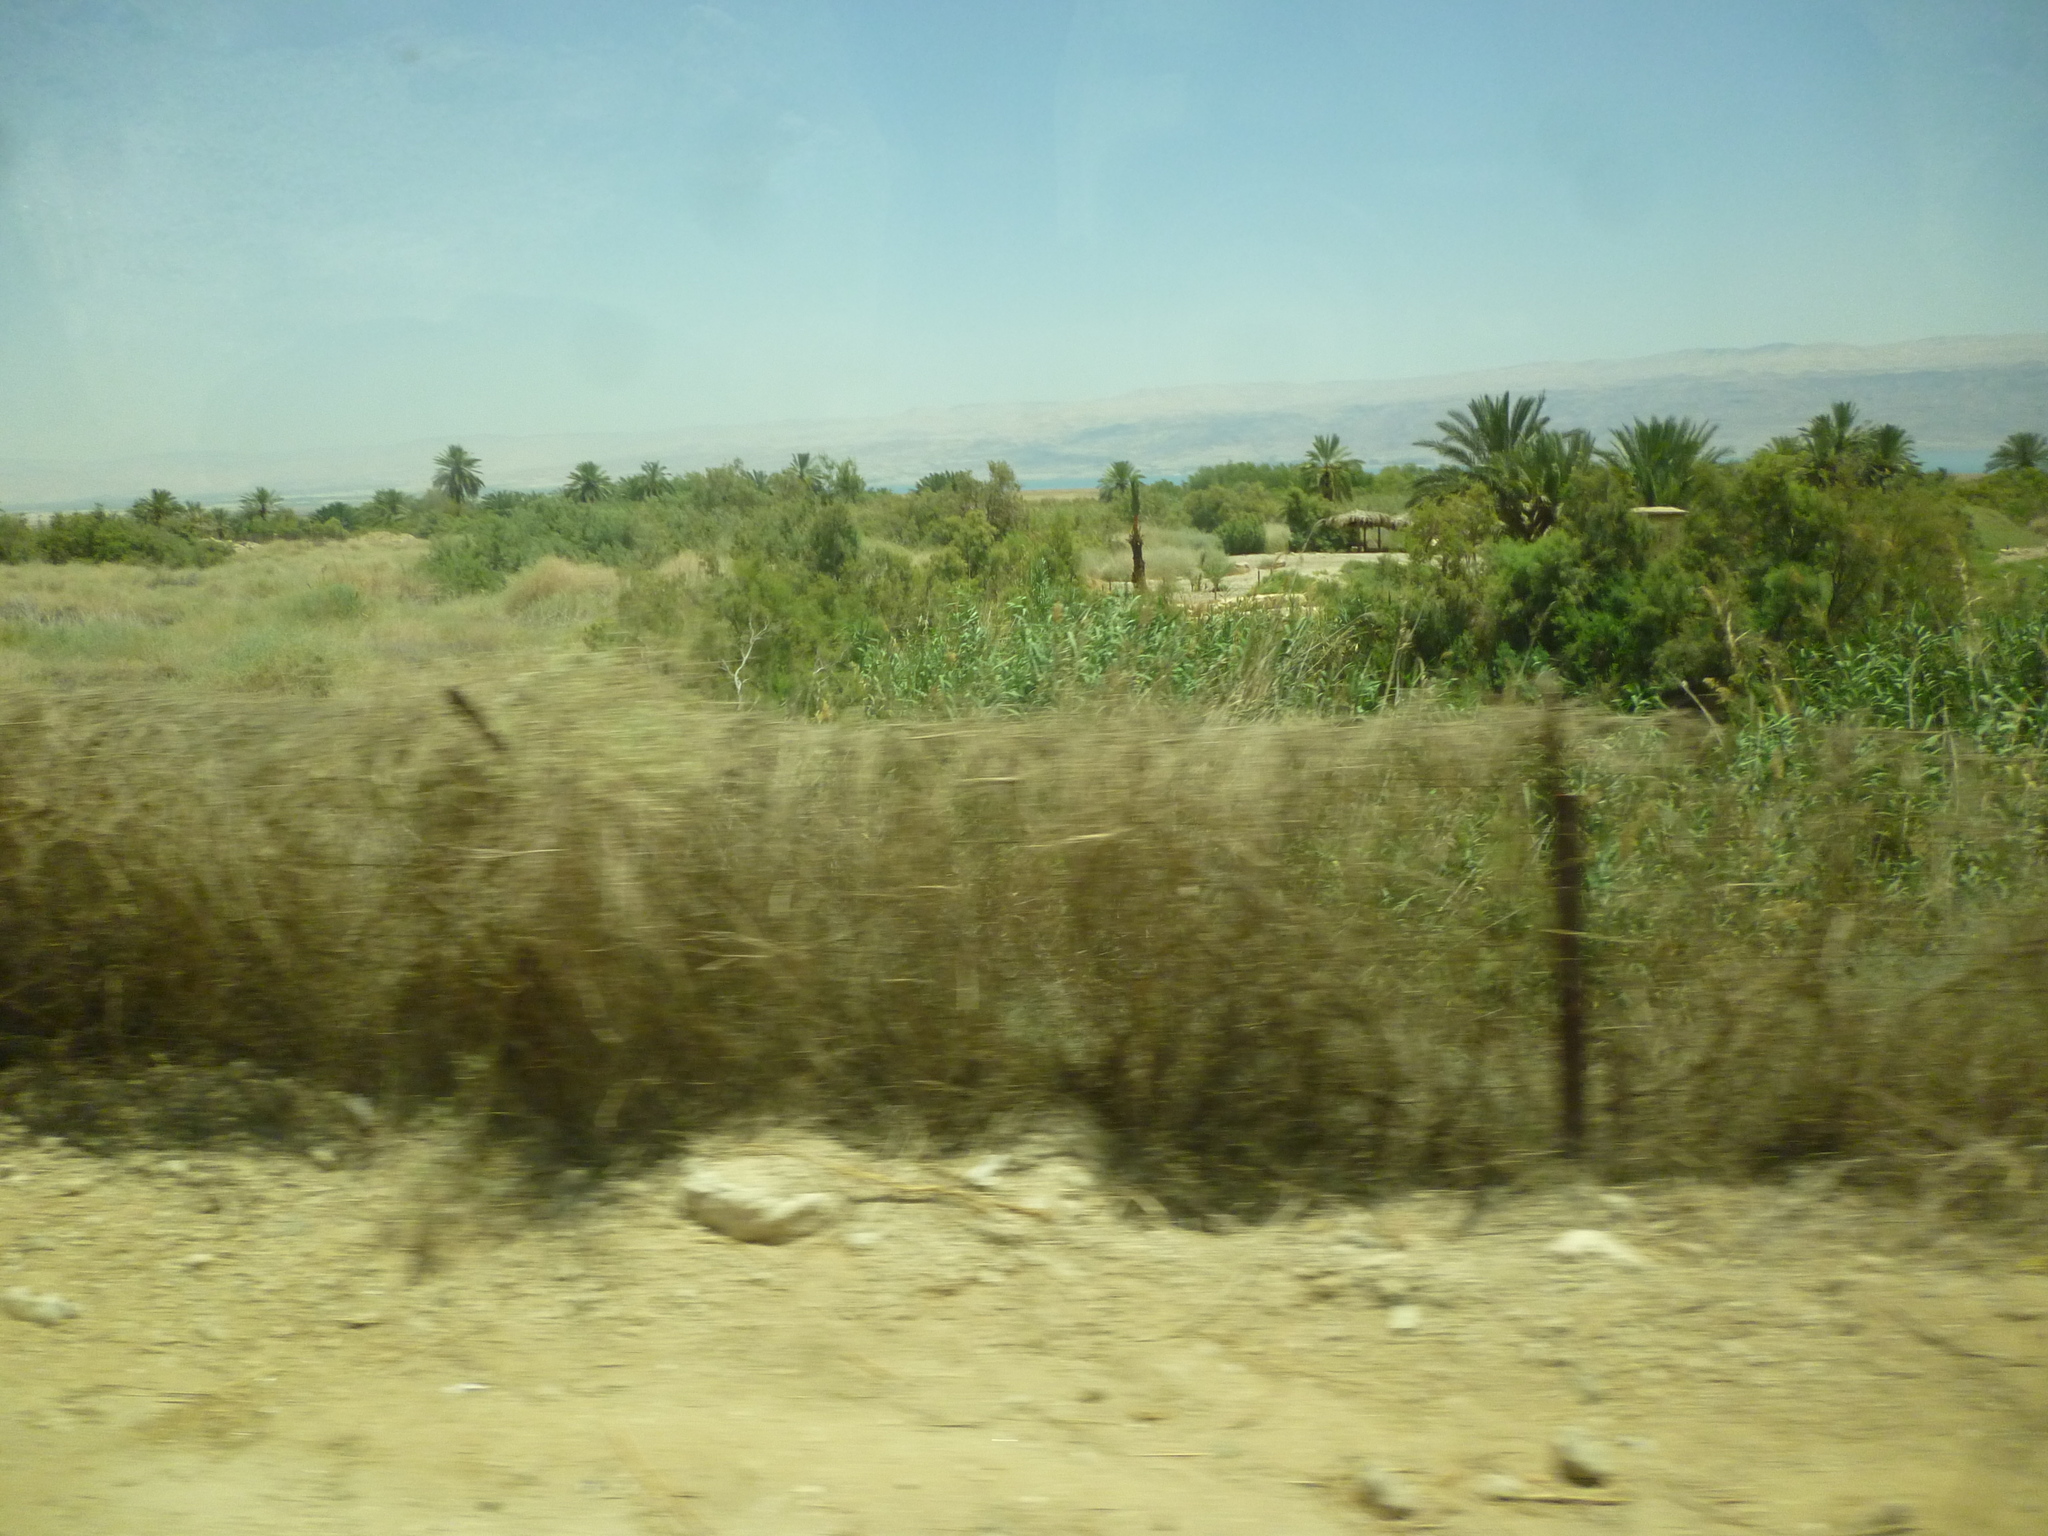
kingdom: Plantae
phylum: Tracheophyta
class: Liliopsida
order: Poales
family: Poaceae
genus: Phragmites
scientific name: Phragmites australis
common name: Common reed
